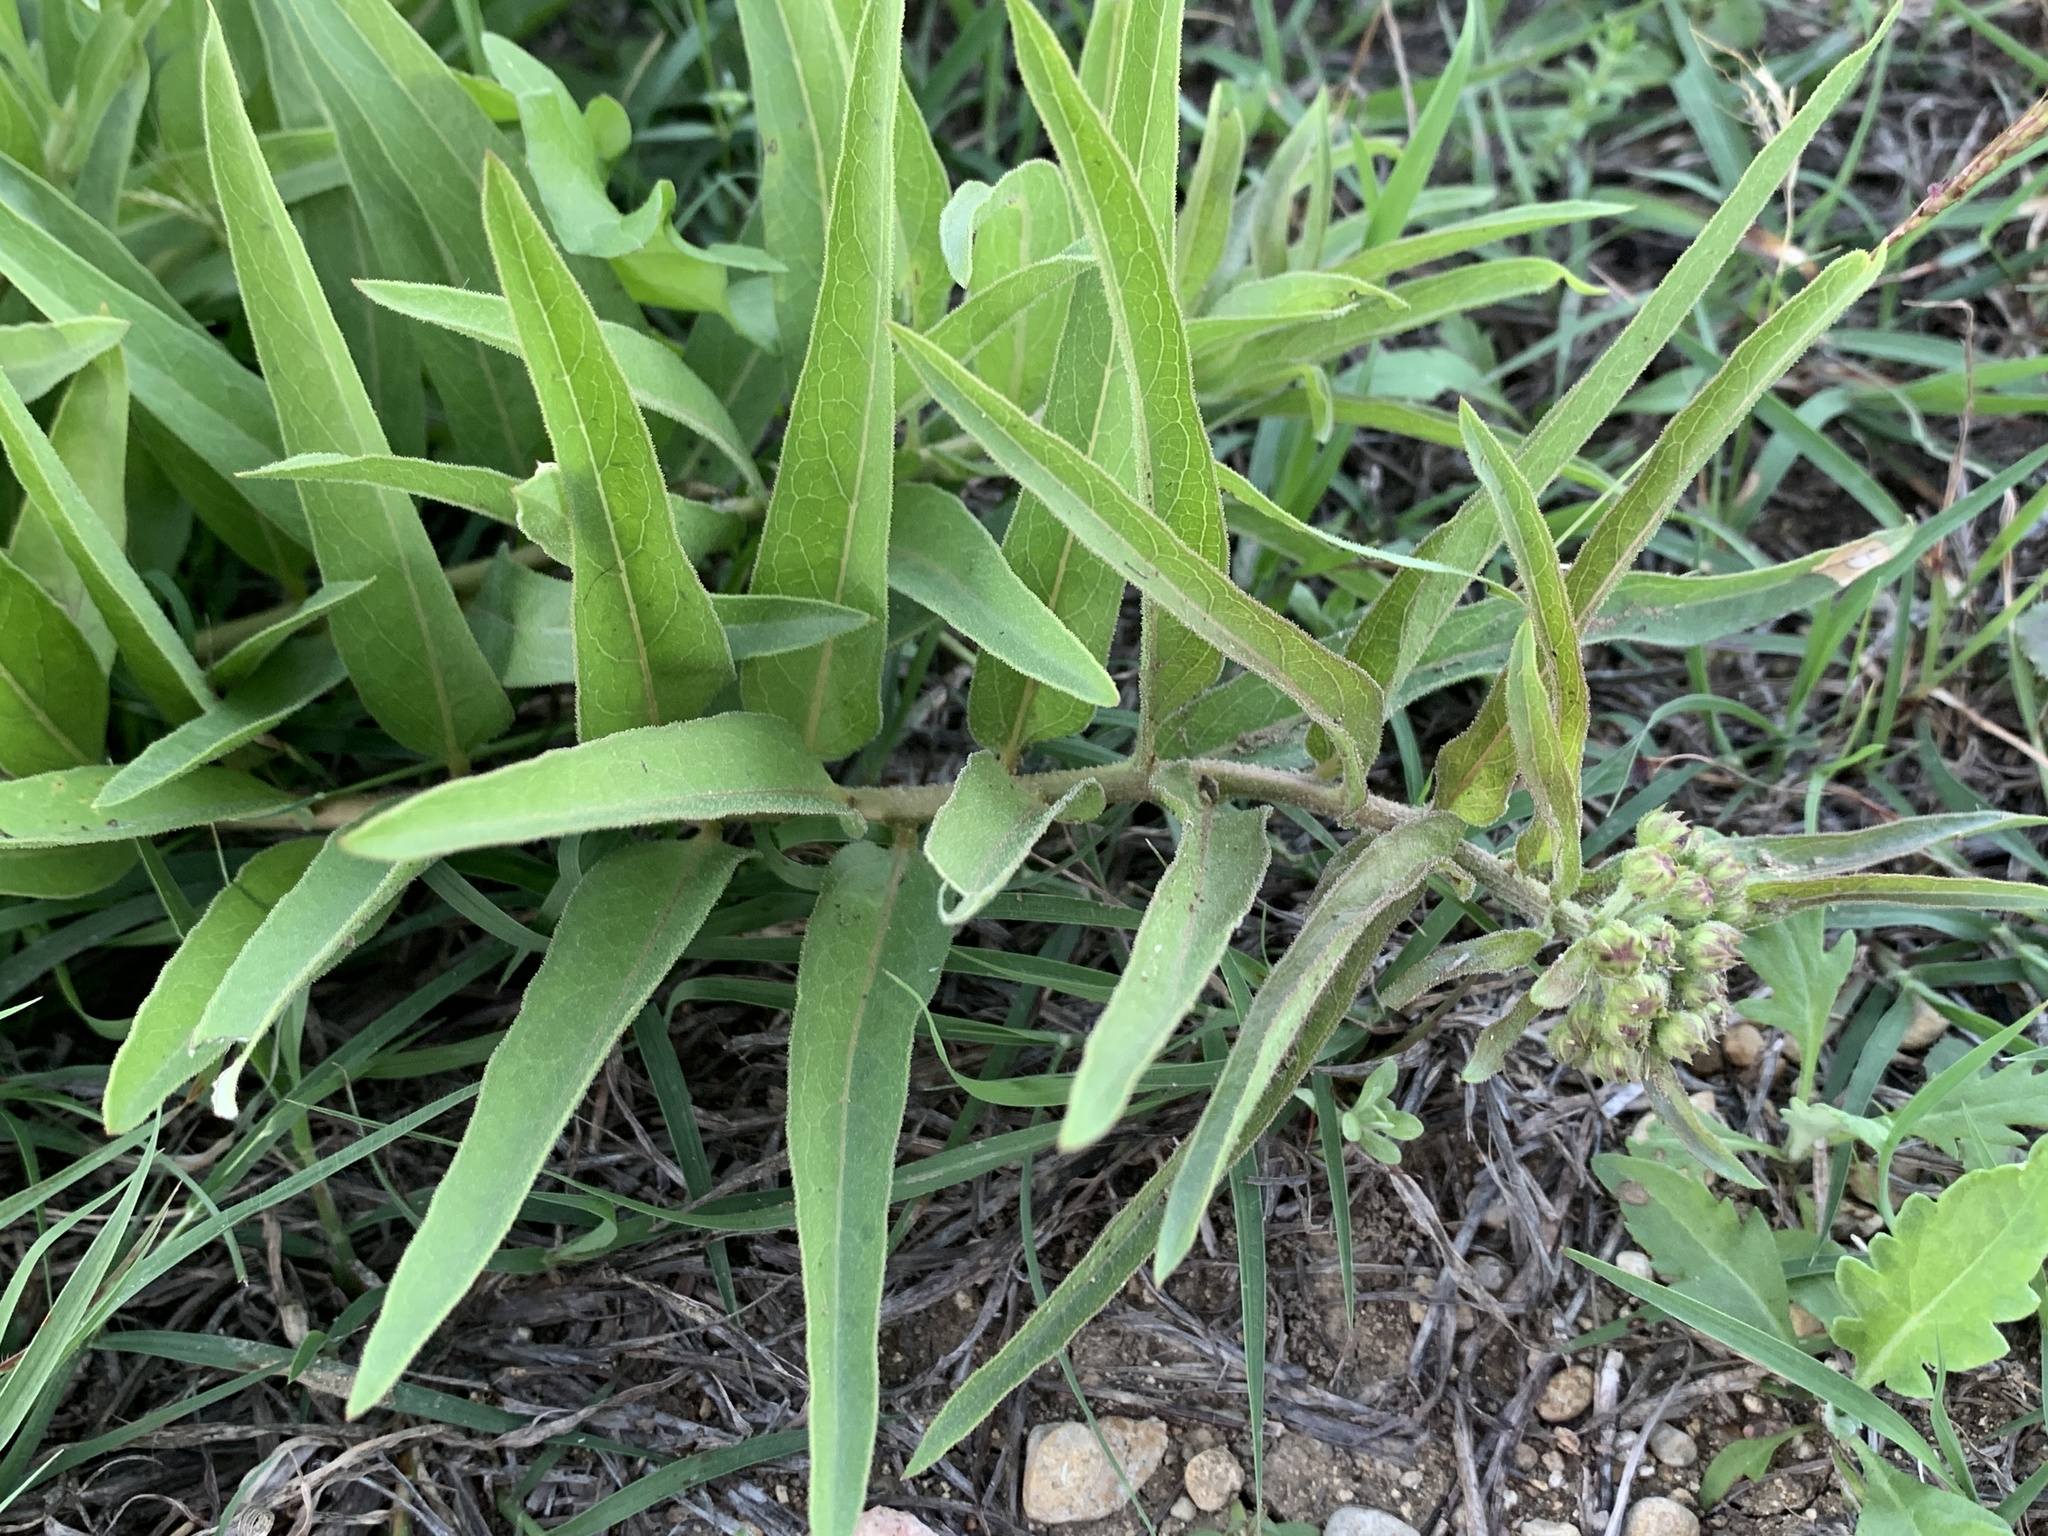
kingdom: Plantae
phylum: Tracheophyta
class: Magnoliopsida
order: Gentianales
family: Apocynaceae
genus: Asclepias
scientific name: Asclepias asperula
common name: Antelope horns
